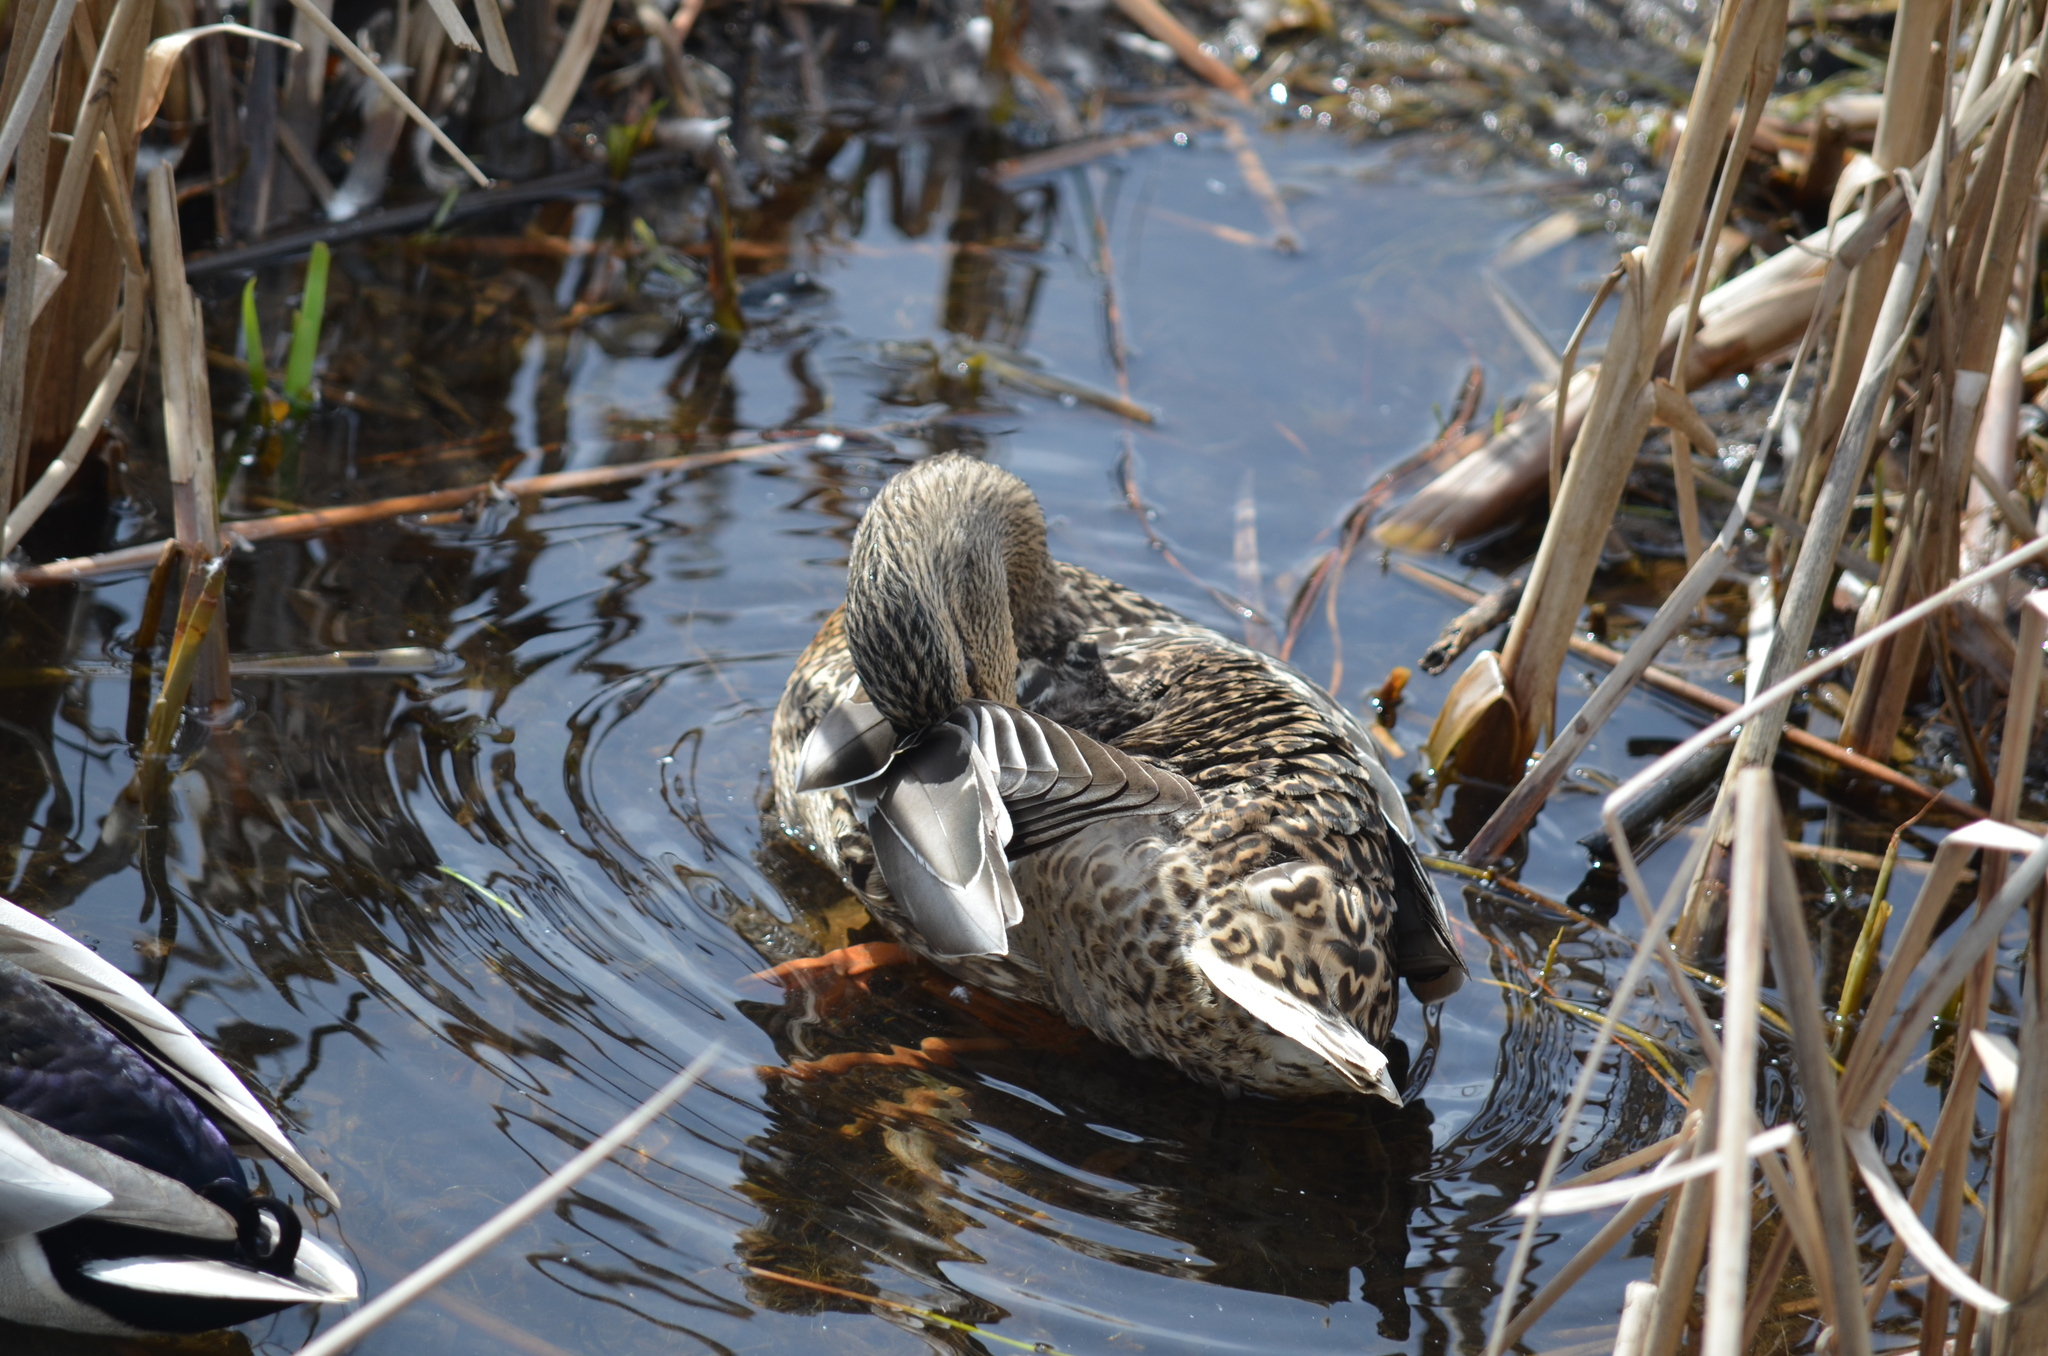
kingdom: Animalia
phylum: Chordata
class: Aves
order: Anseriformes
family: Anatidae
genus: Anas
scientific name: Anas platyrhynchos
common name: Mallard
